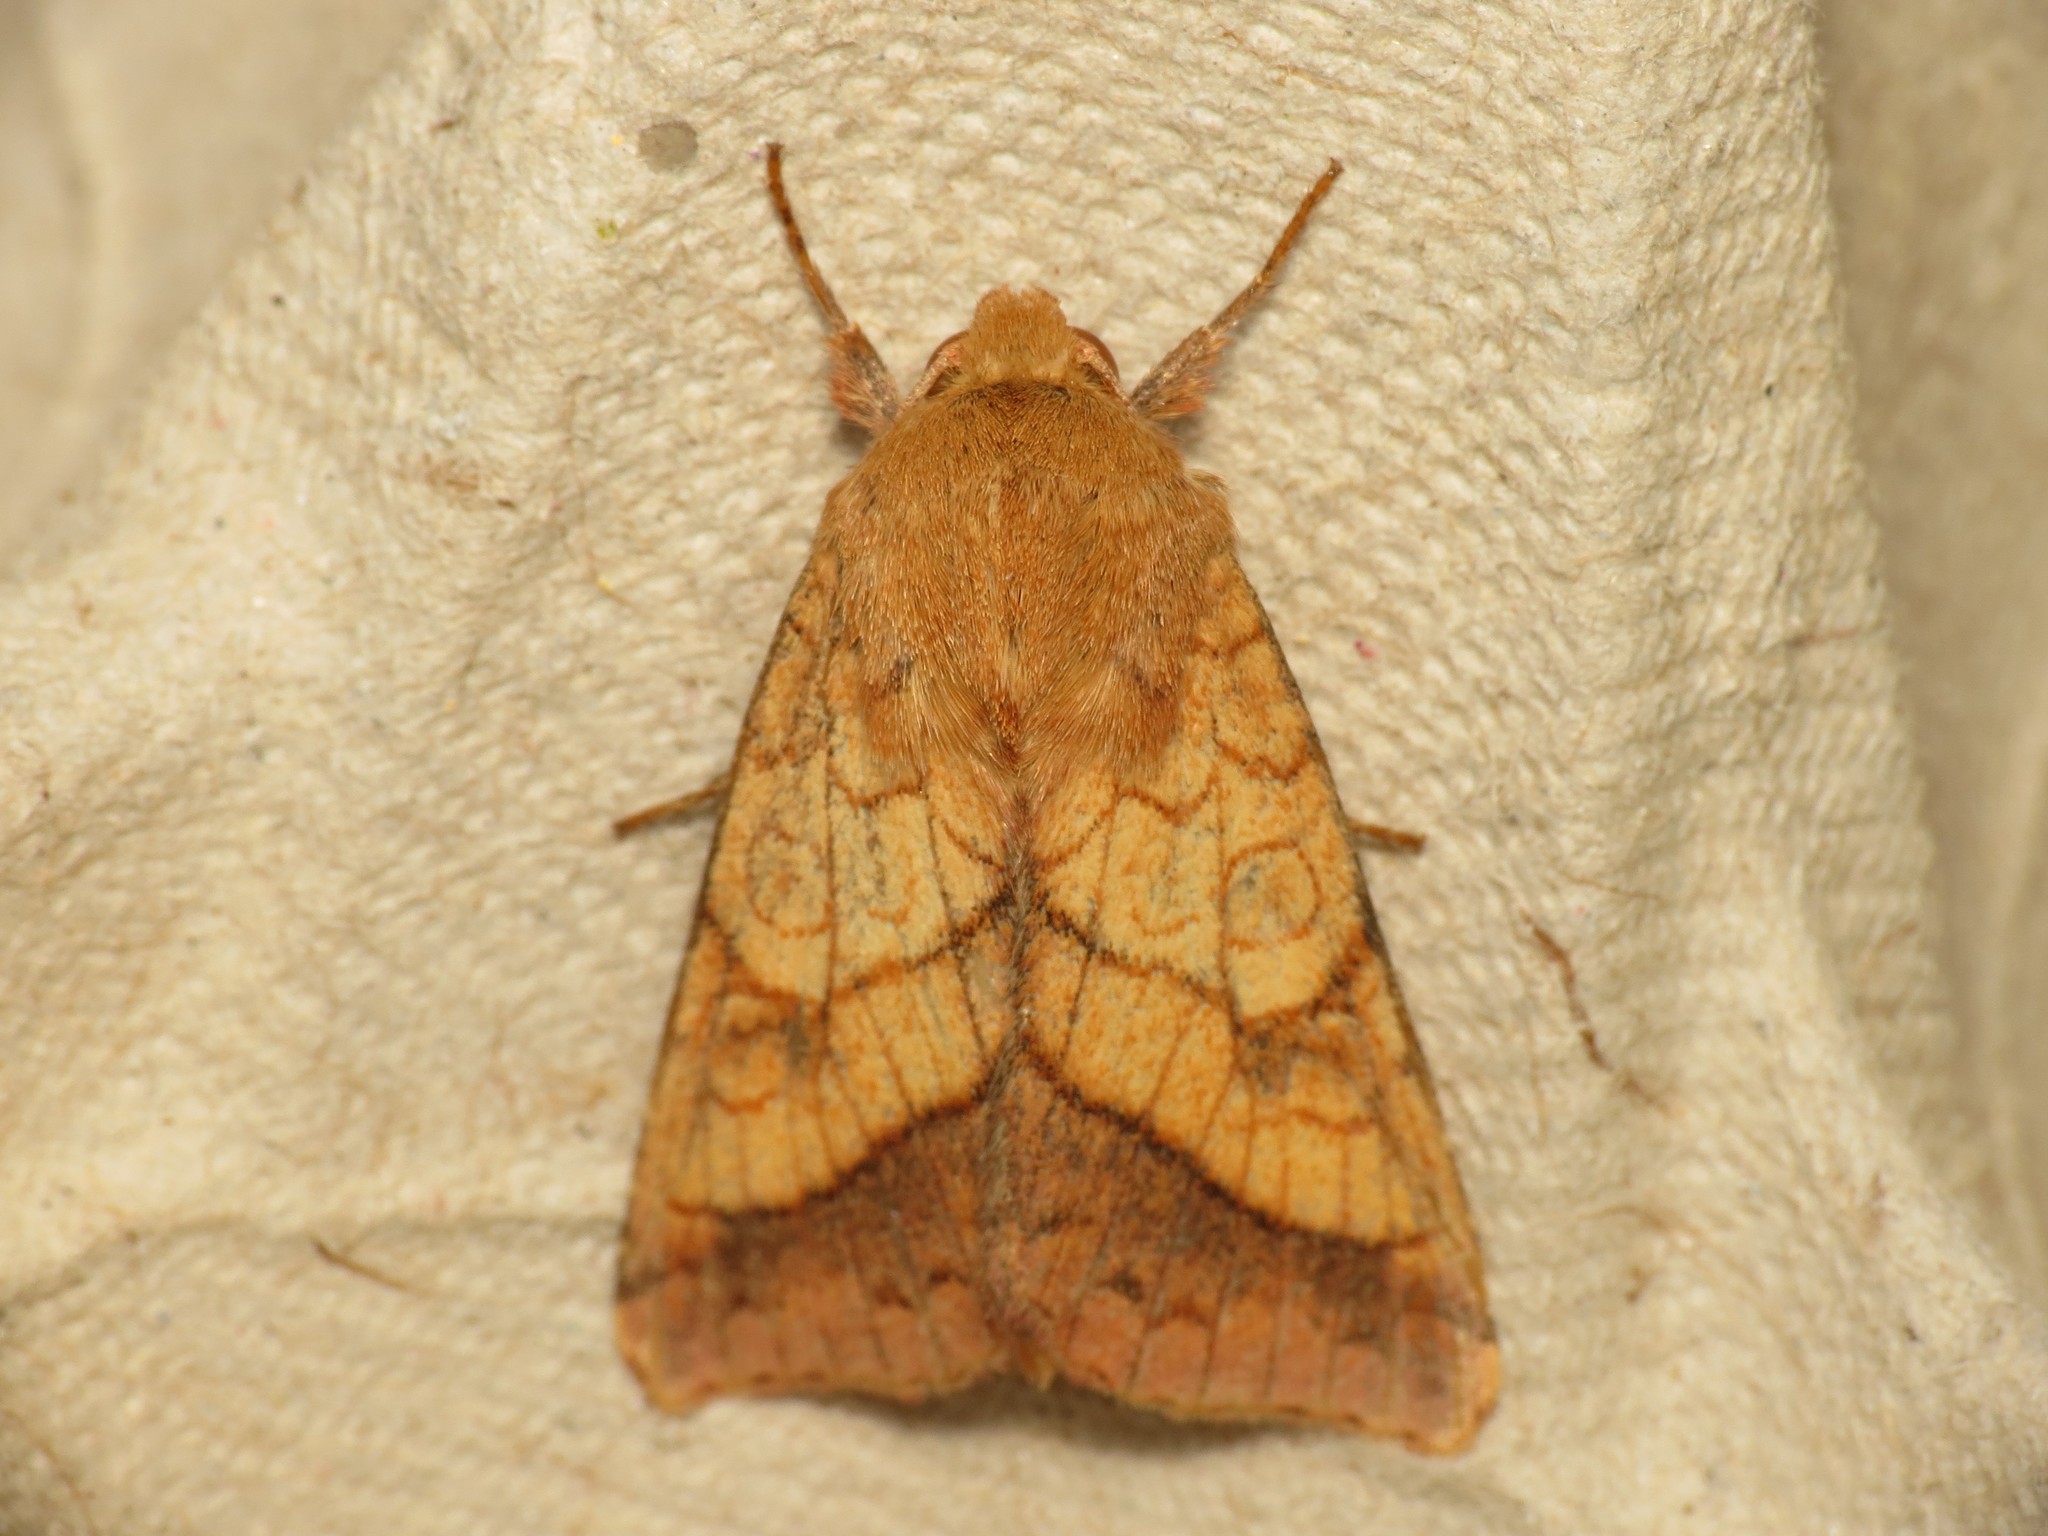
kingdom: Animalia
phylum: Arthropoda
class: Insecta
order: Lepidoptera
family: Noctuidae
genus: Pyrrhia
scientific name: Pyrrhia umbra
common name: Bordered sallow
